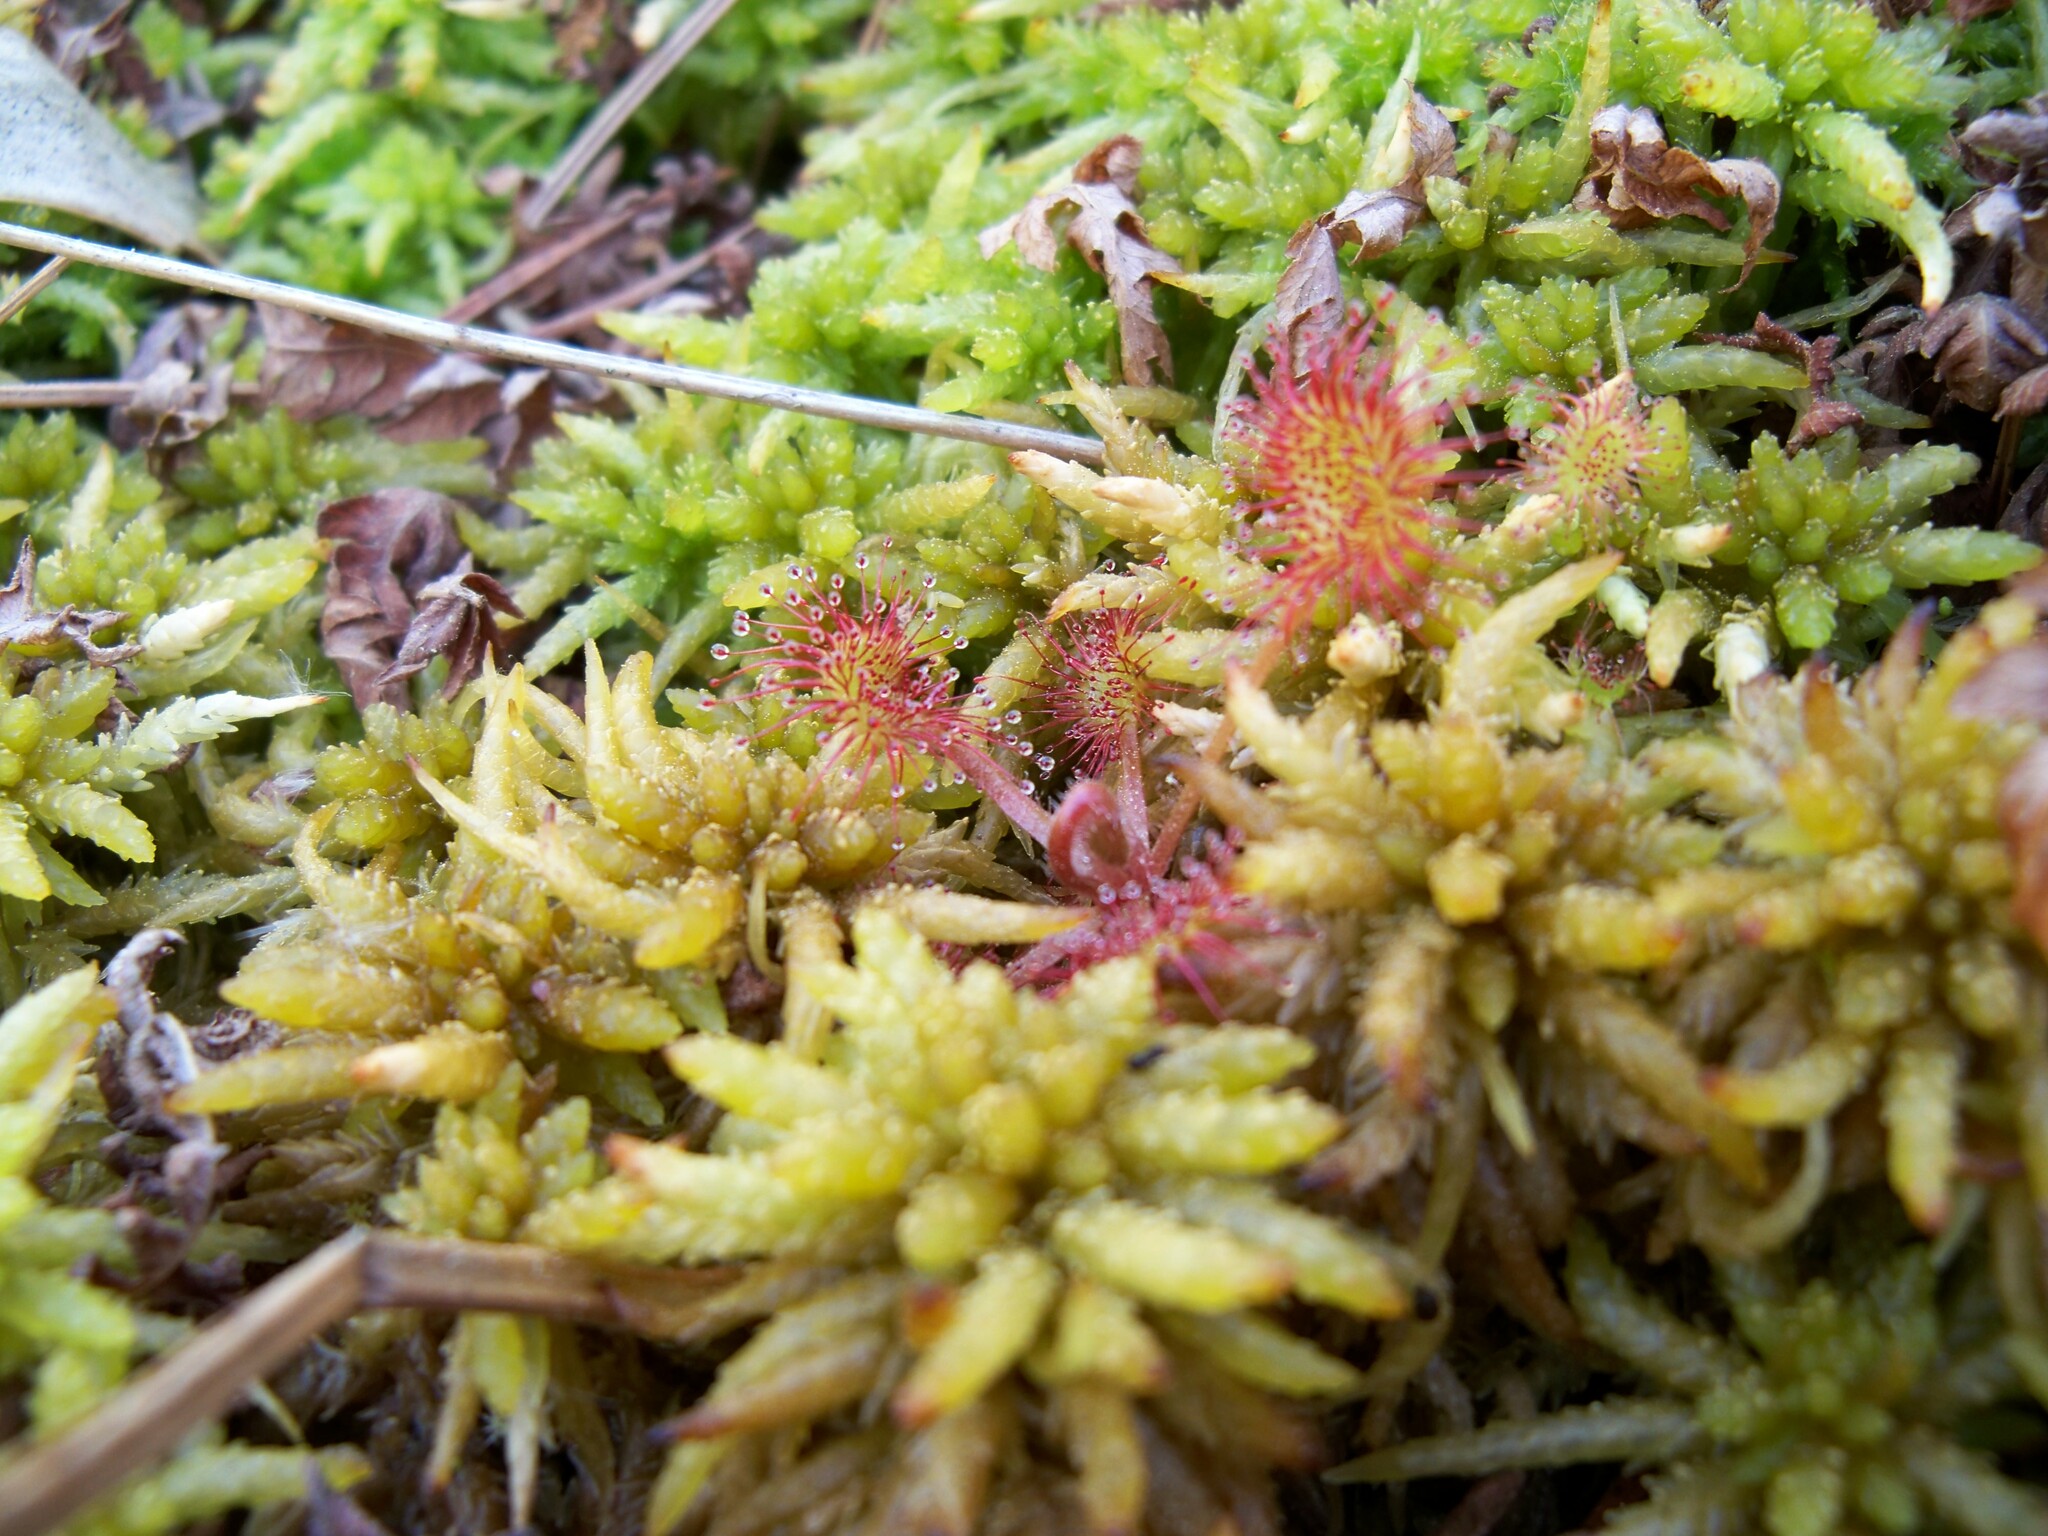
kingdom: Plantae
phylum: Tracheophyta
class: Magnoliopsida
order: Caryophyllales
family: Droseraceae
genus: Drosera
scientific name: Drosera rotundifolia
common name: Round-leaved sundew
